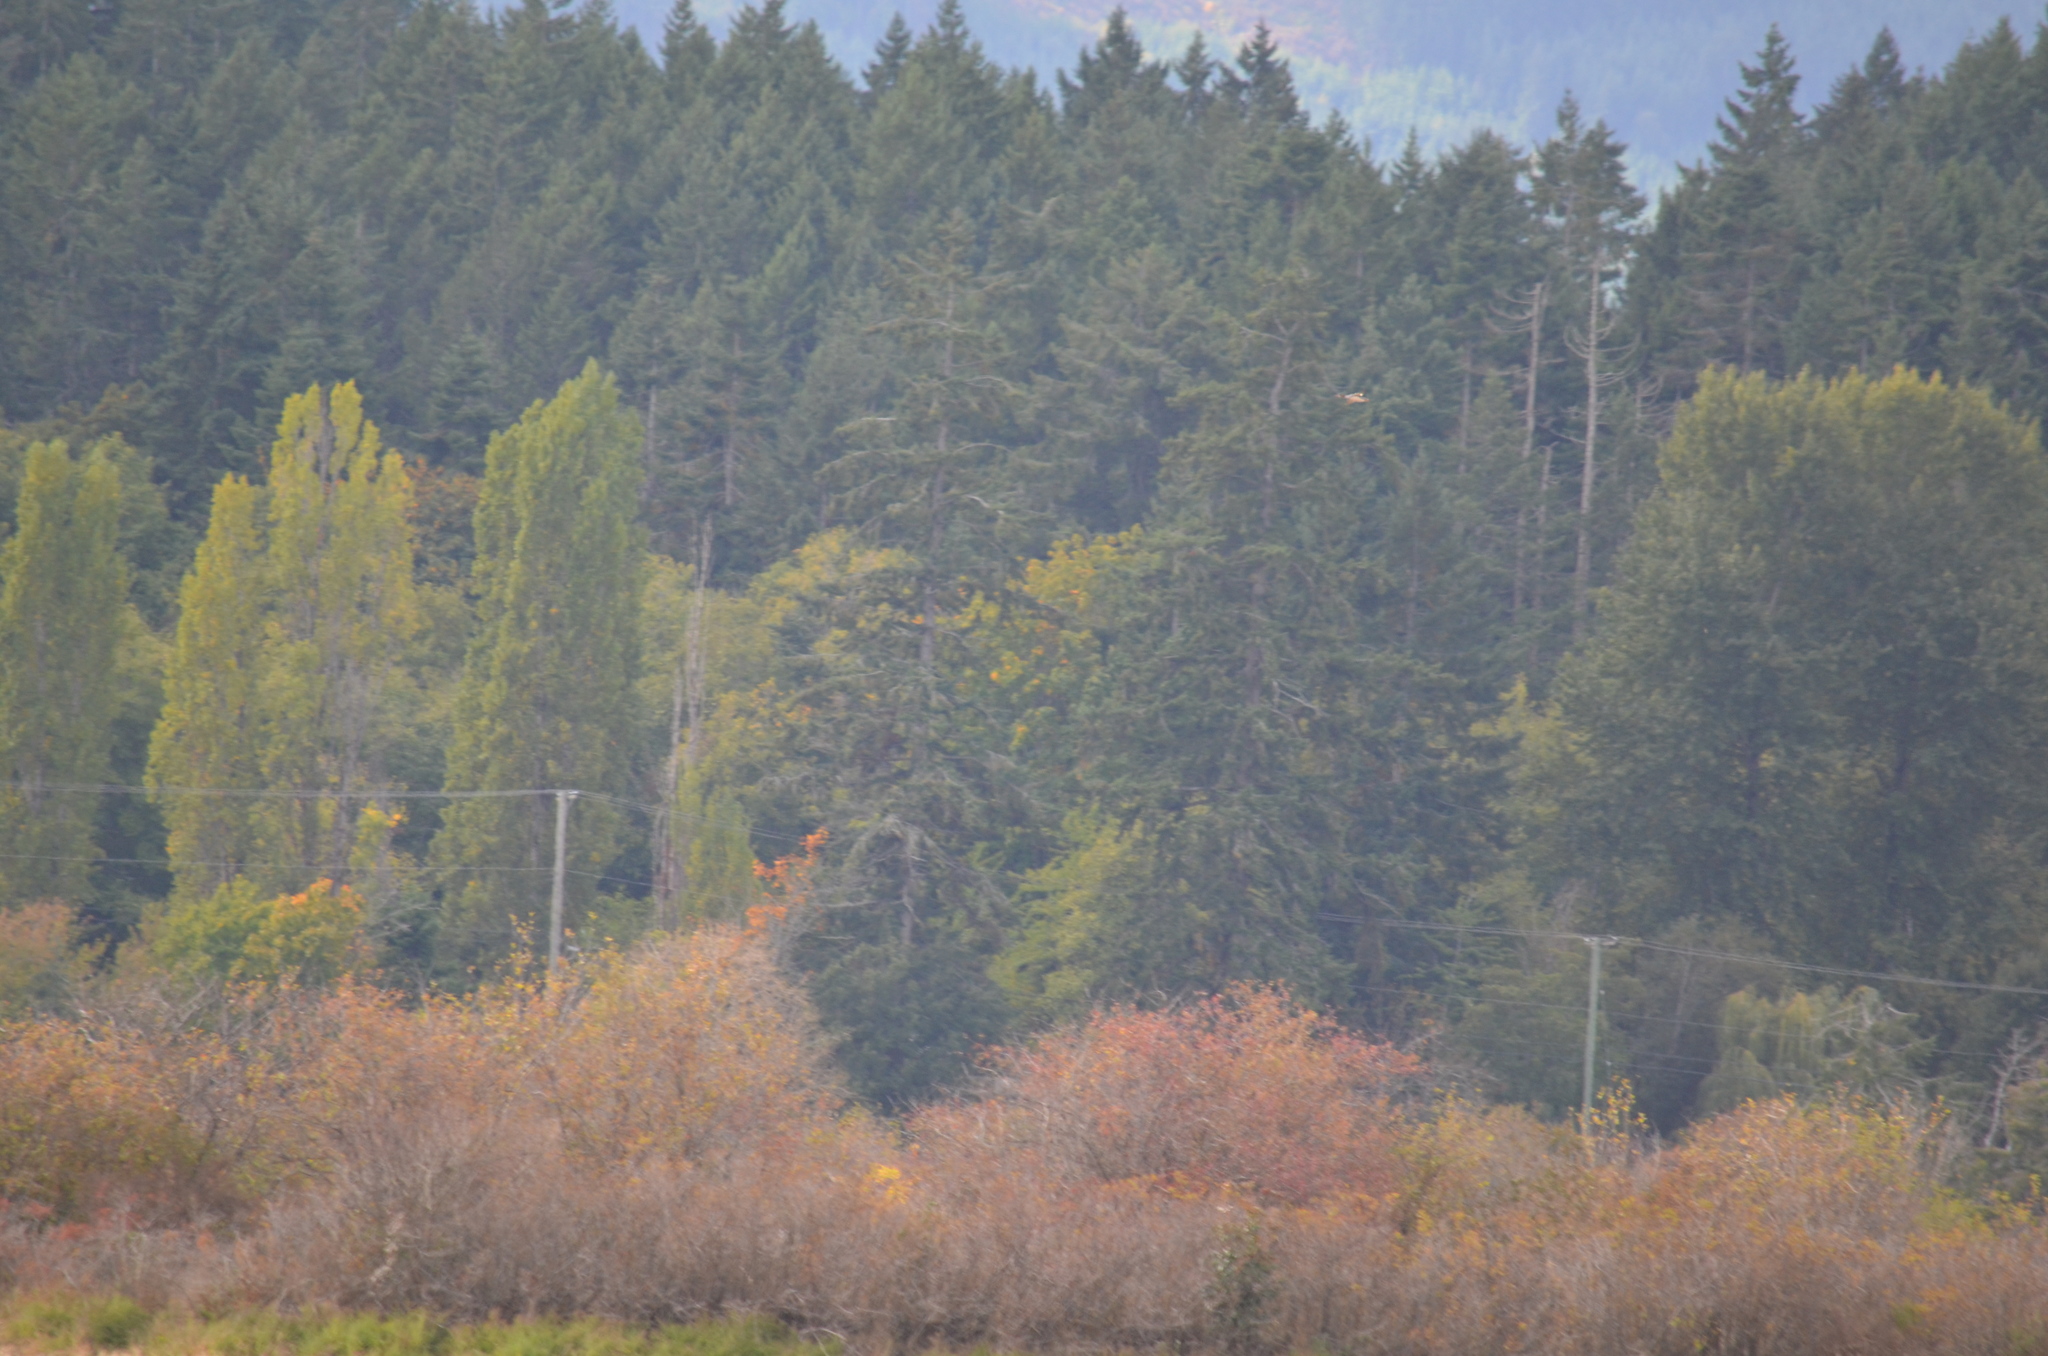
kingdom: Animalia
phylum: Chordata
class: Aves
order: Anseriformes
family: Anatidae
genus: Mergus
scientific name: Mergus merganser
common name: Common merganser
